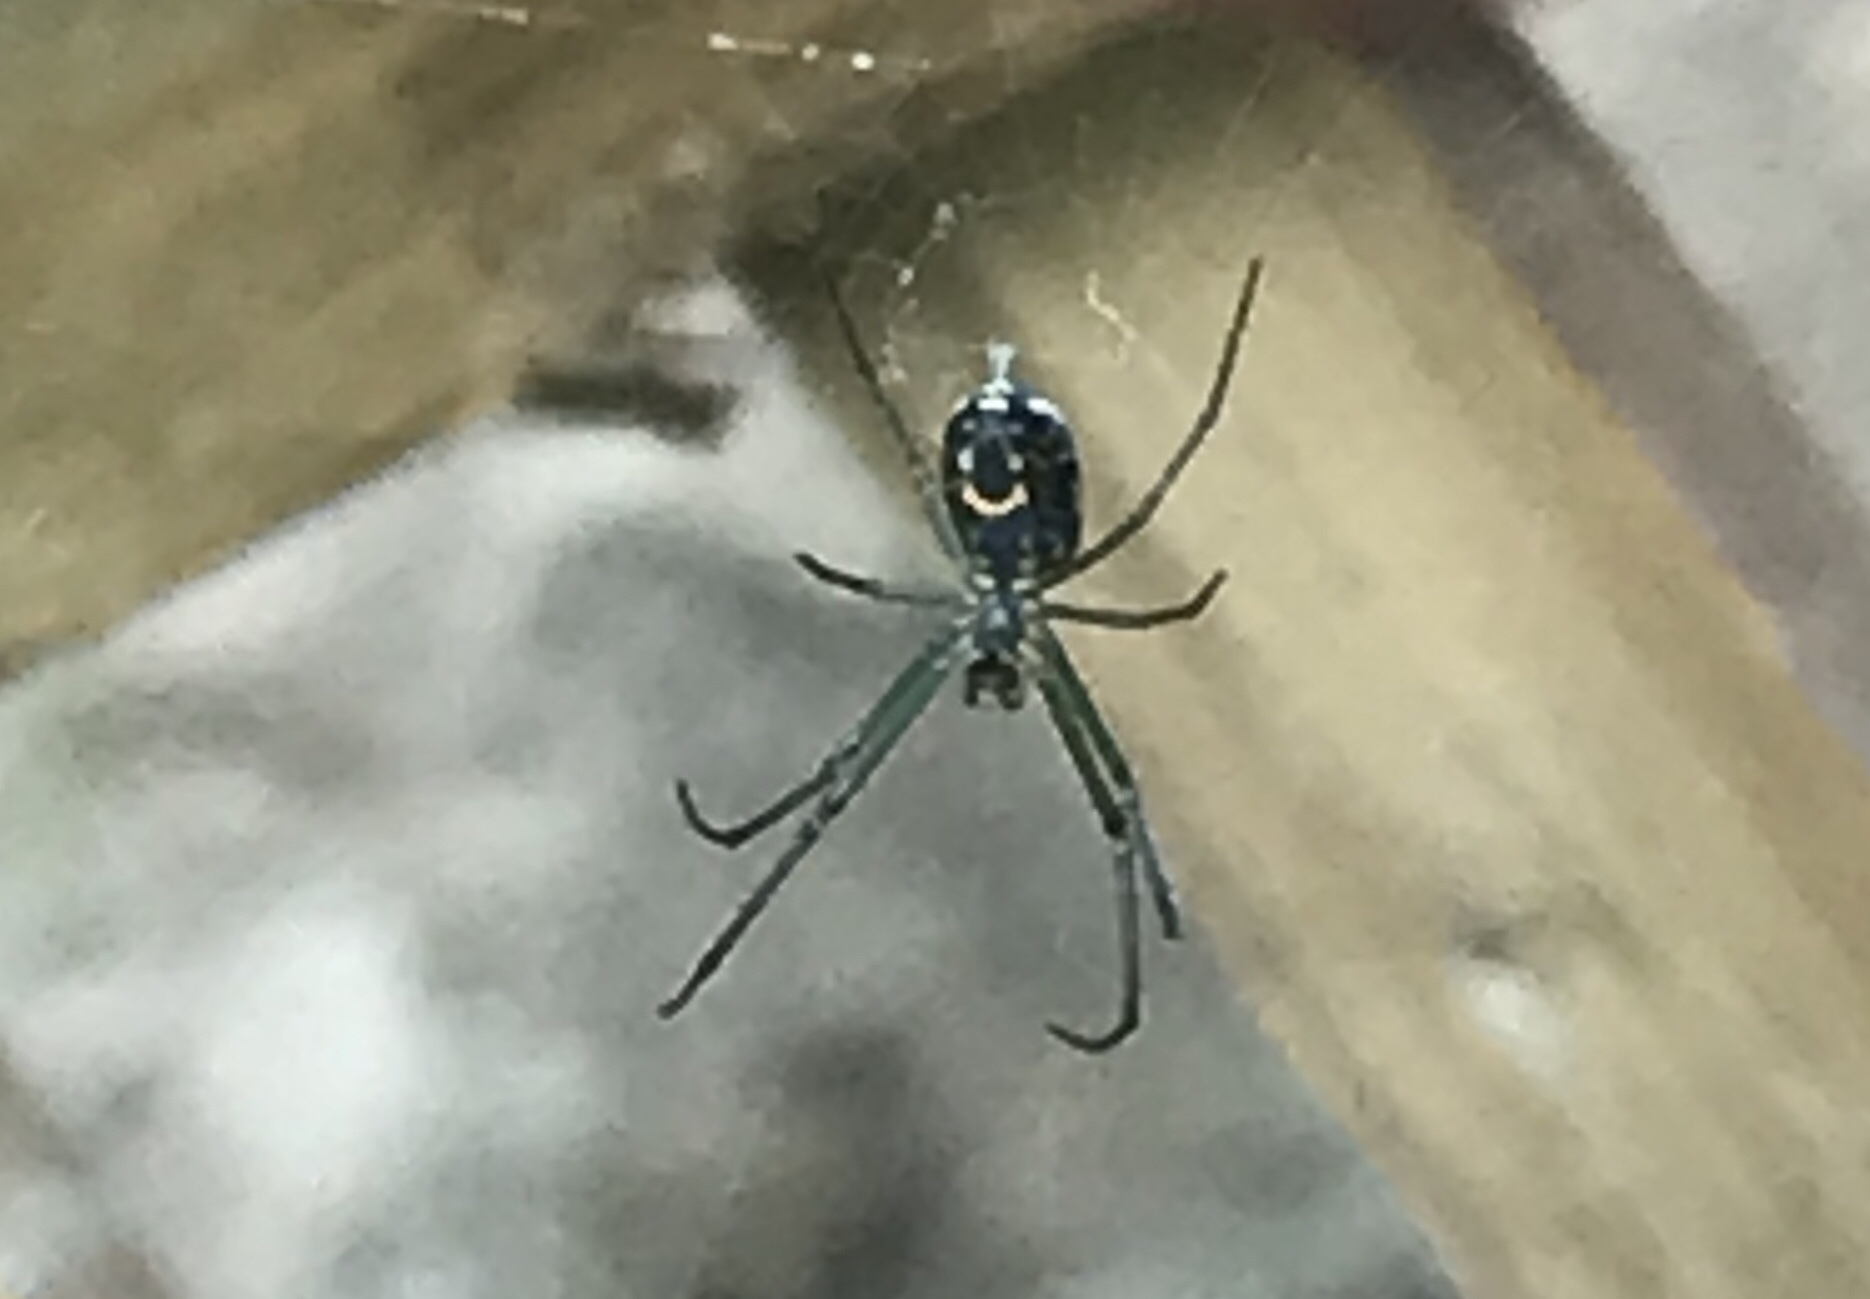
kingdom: Animalia
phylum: Arthropoda
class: Arachnida
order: Araneae
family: Tetragnathidae
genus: Leucauge
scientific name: Leucauge venusta
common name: Longjawed orb weavers
